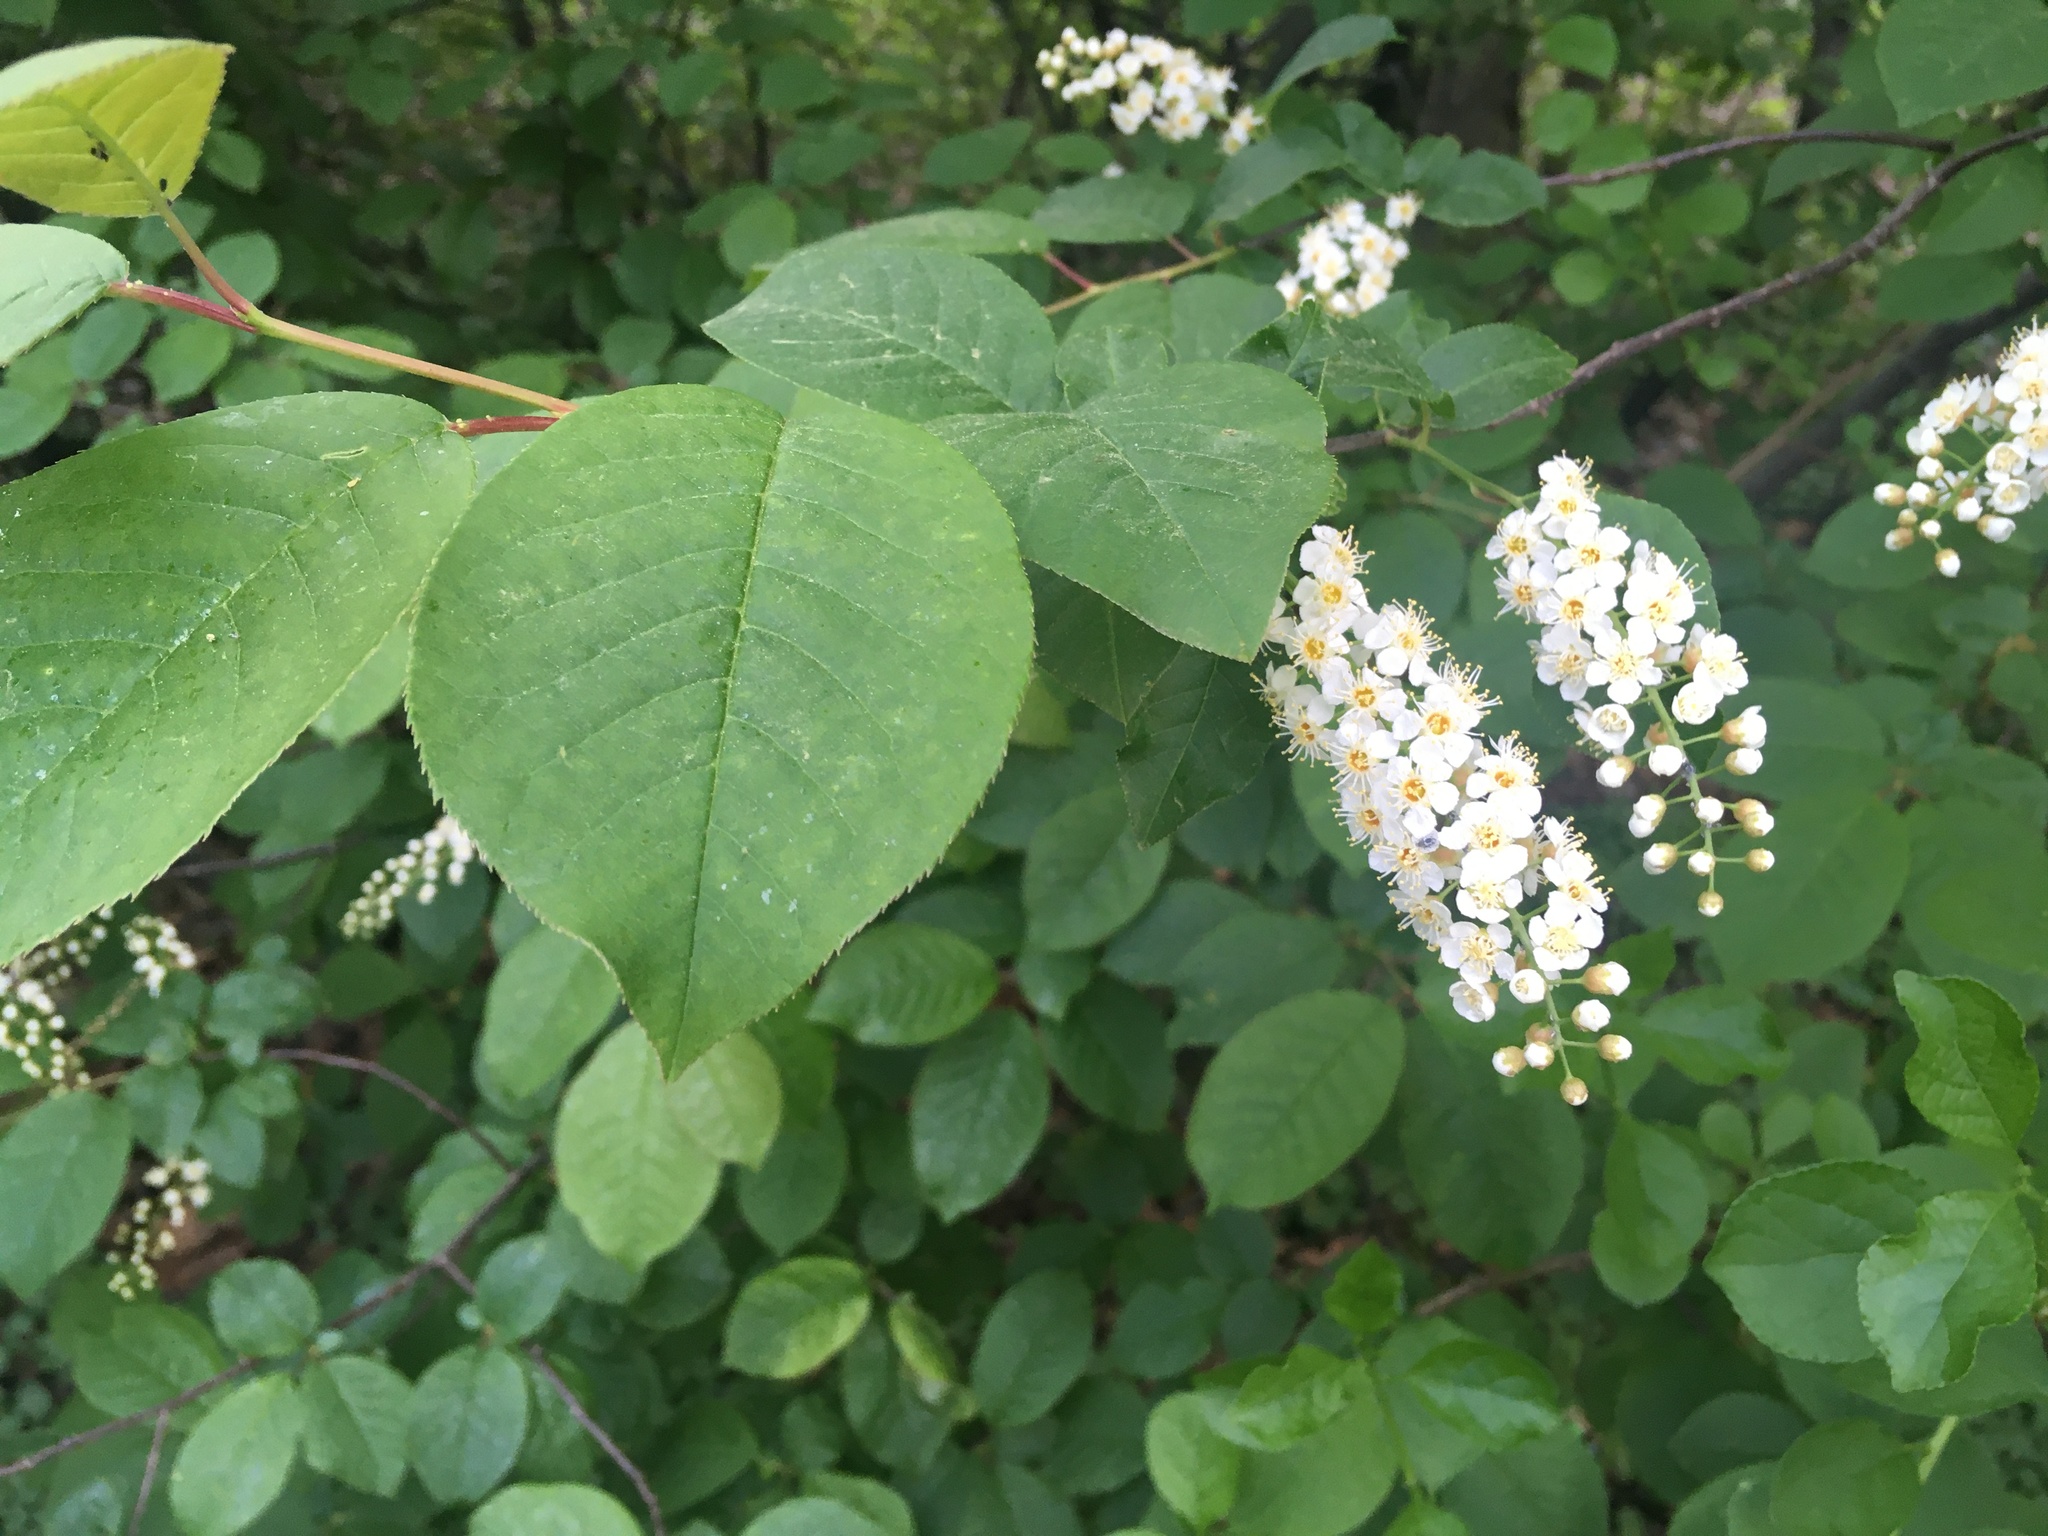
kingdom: Plantae
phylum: Tracheophyta
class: Magnoliopsida
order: Rosales
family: Rosaceae
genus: Prunus
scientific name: Prunus virginiana
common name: Chokecherry
